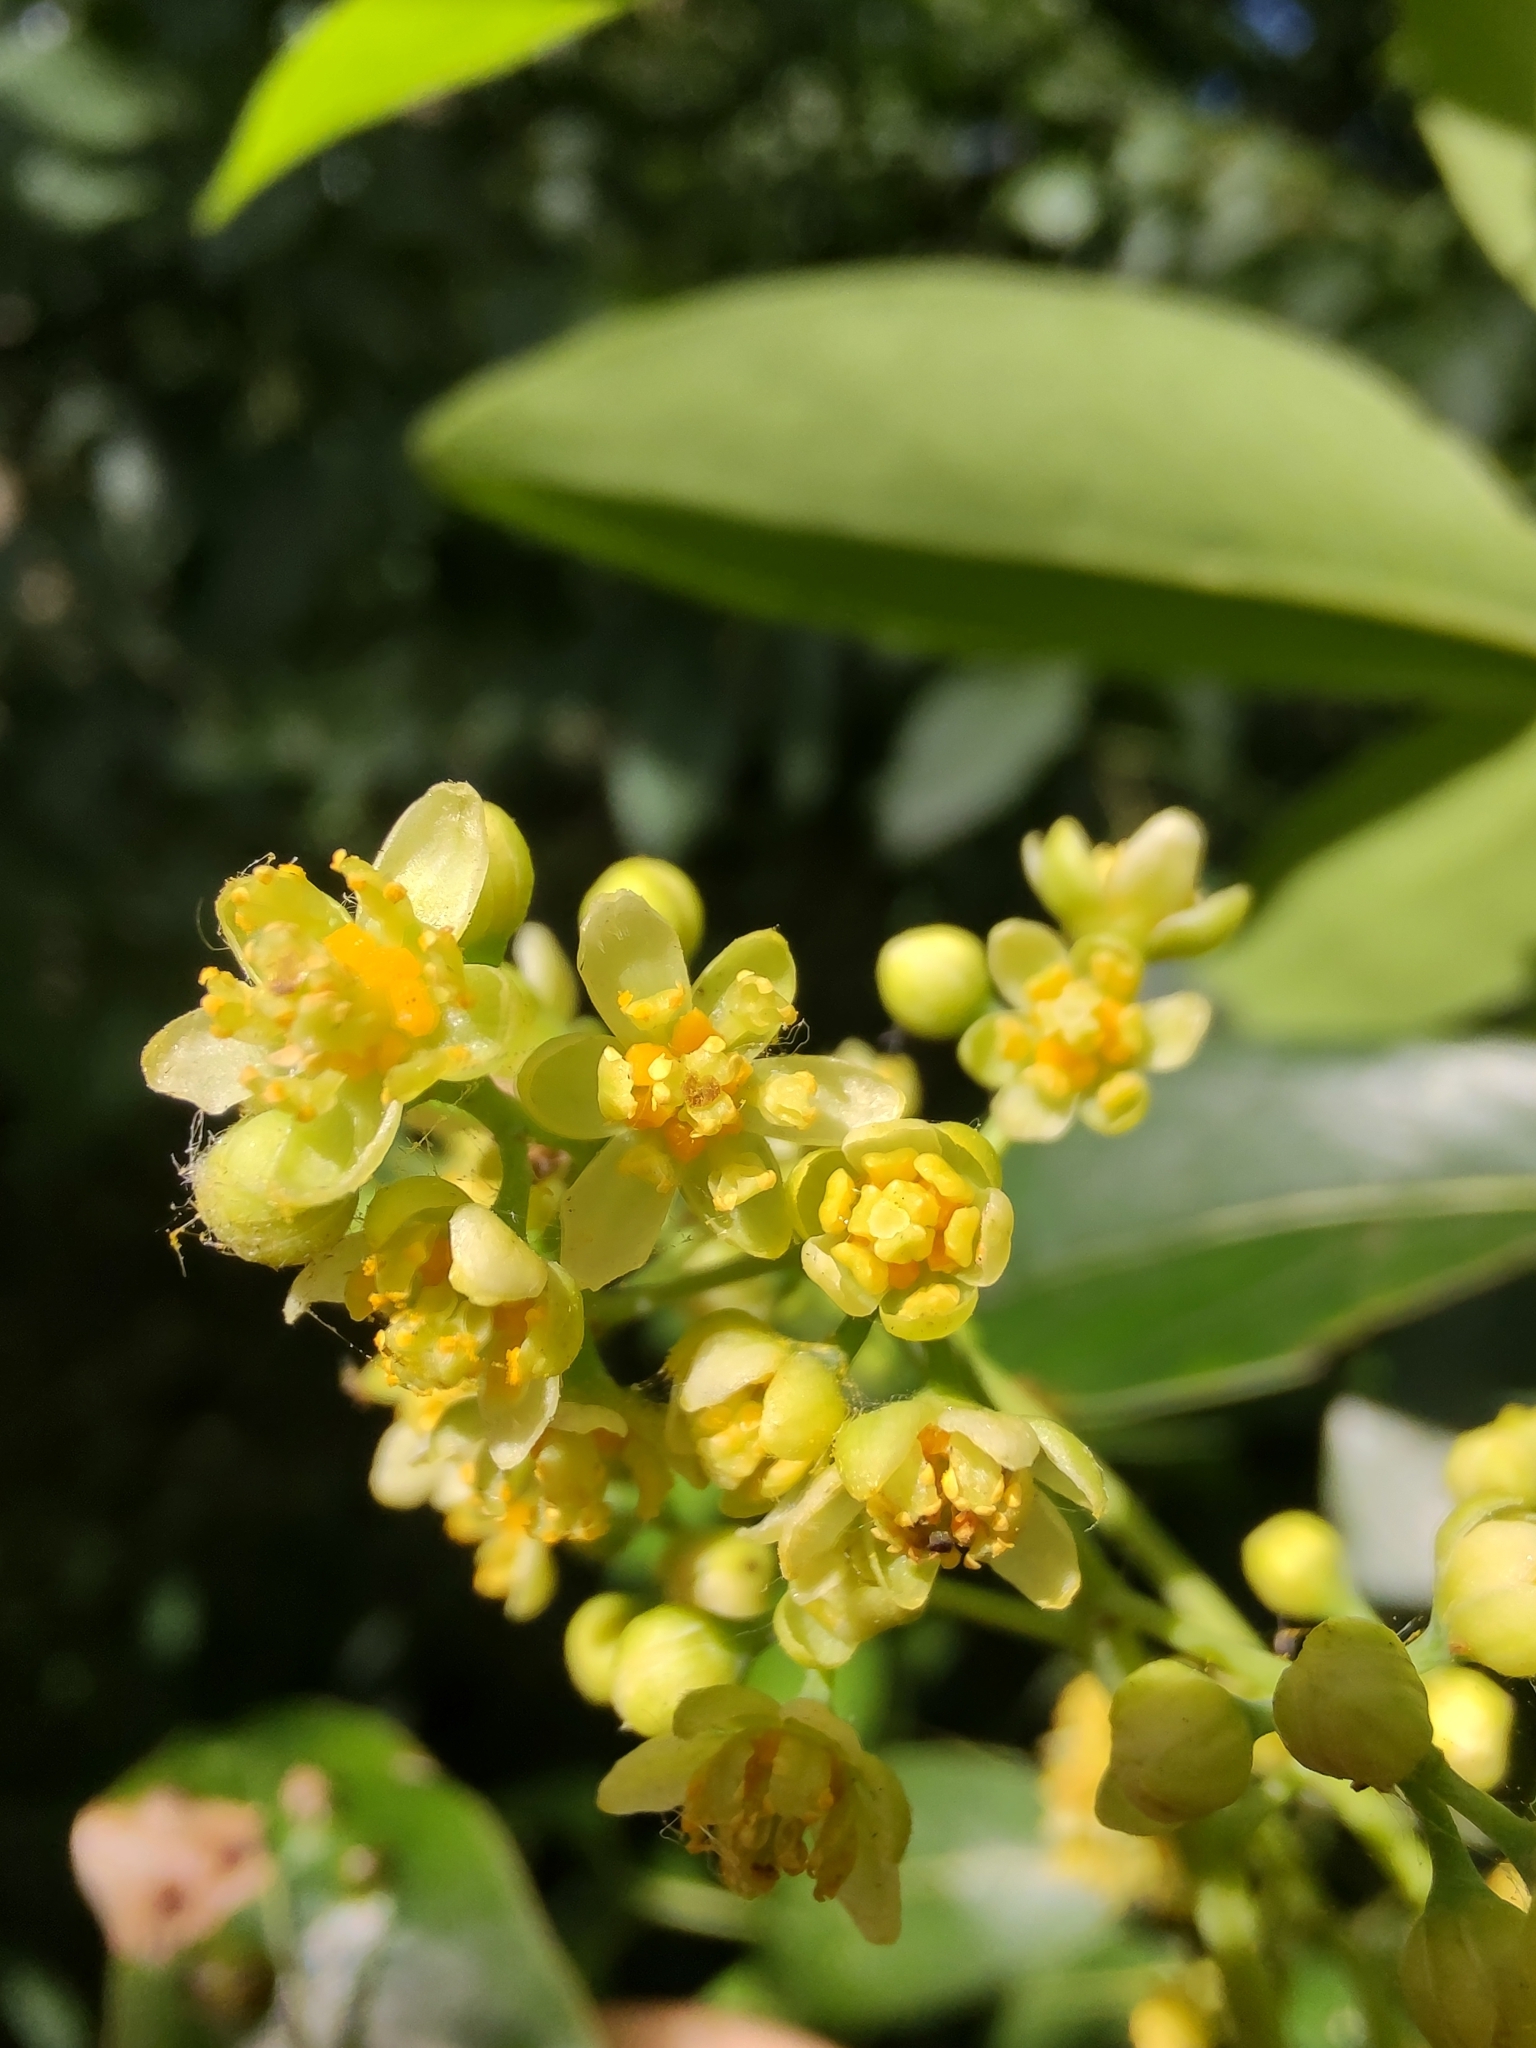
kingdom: Plantae
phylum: Tracheophyta
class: Magnoliopsida
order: Laurales
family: Lauraceae
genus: Ocotea
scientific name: Ocotea acutifolia
